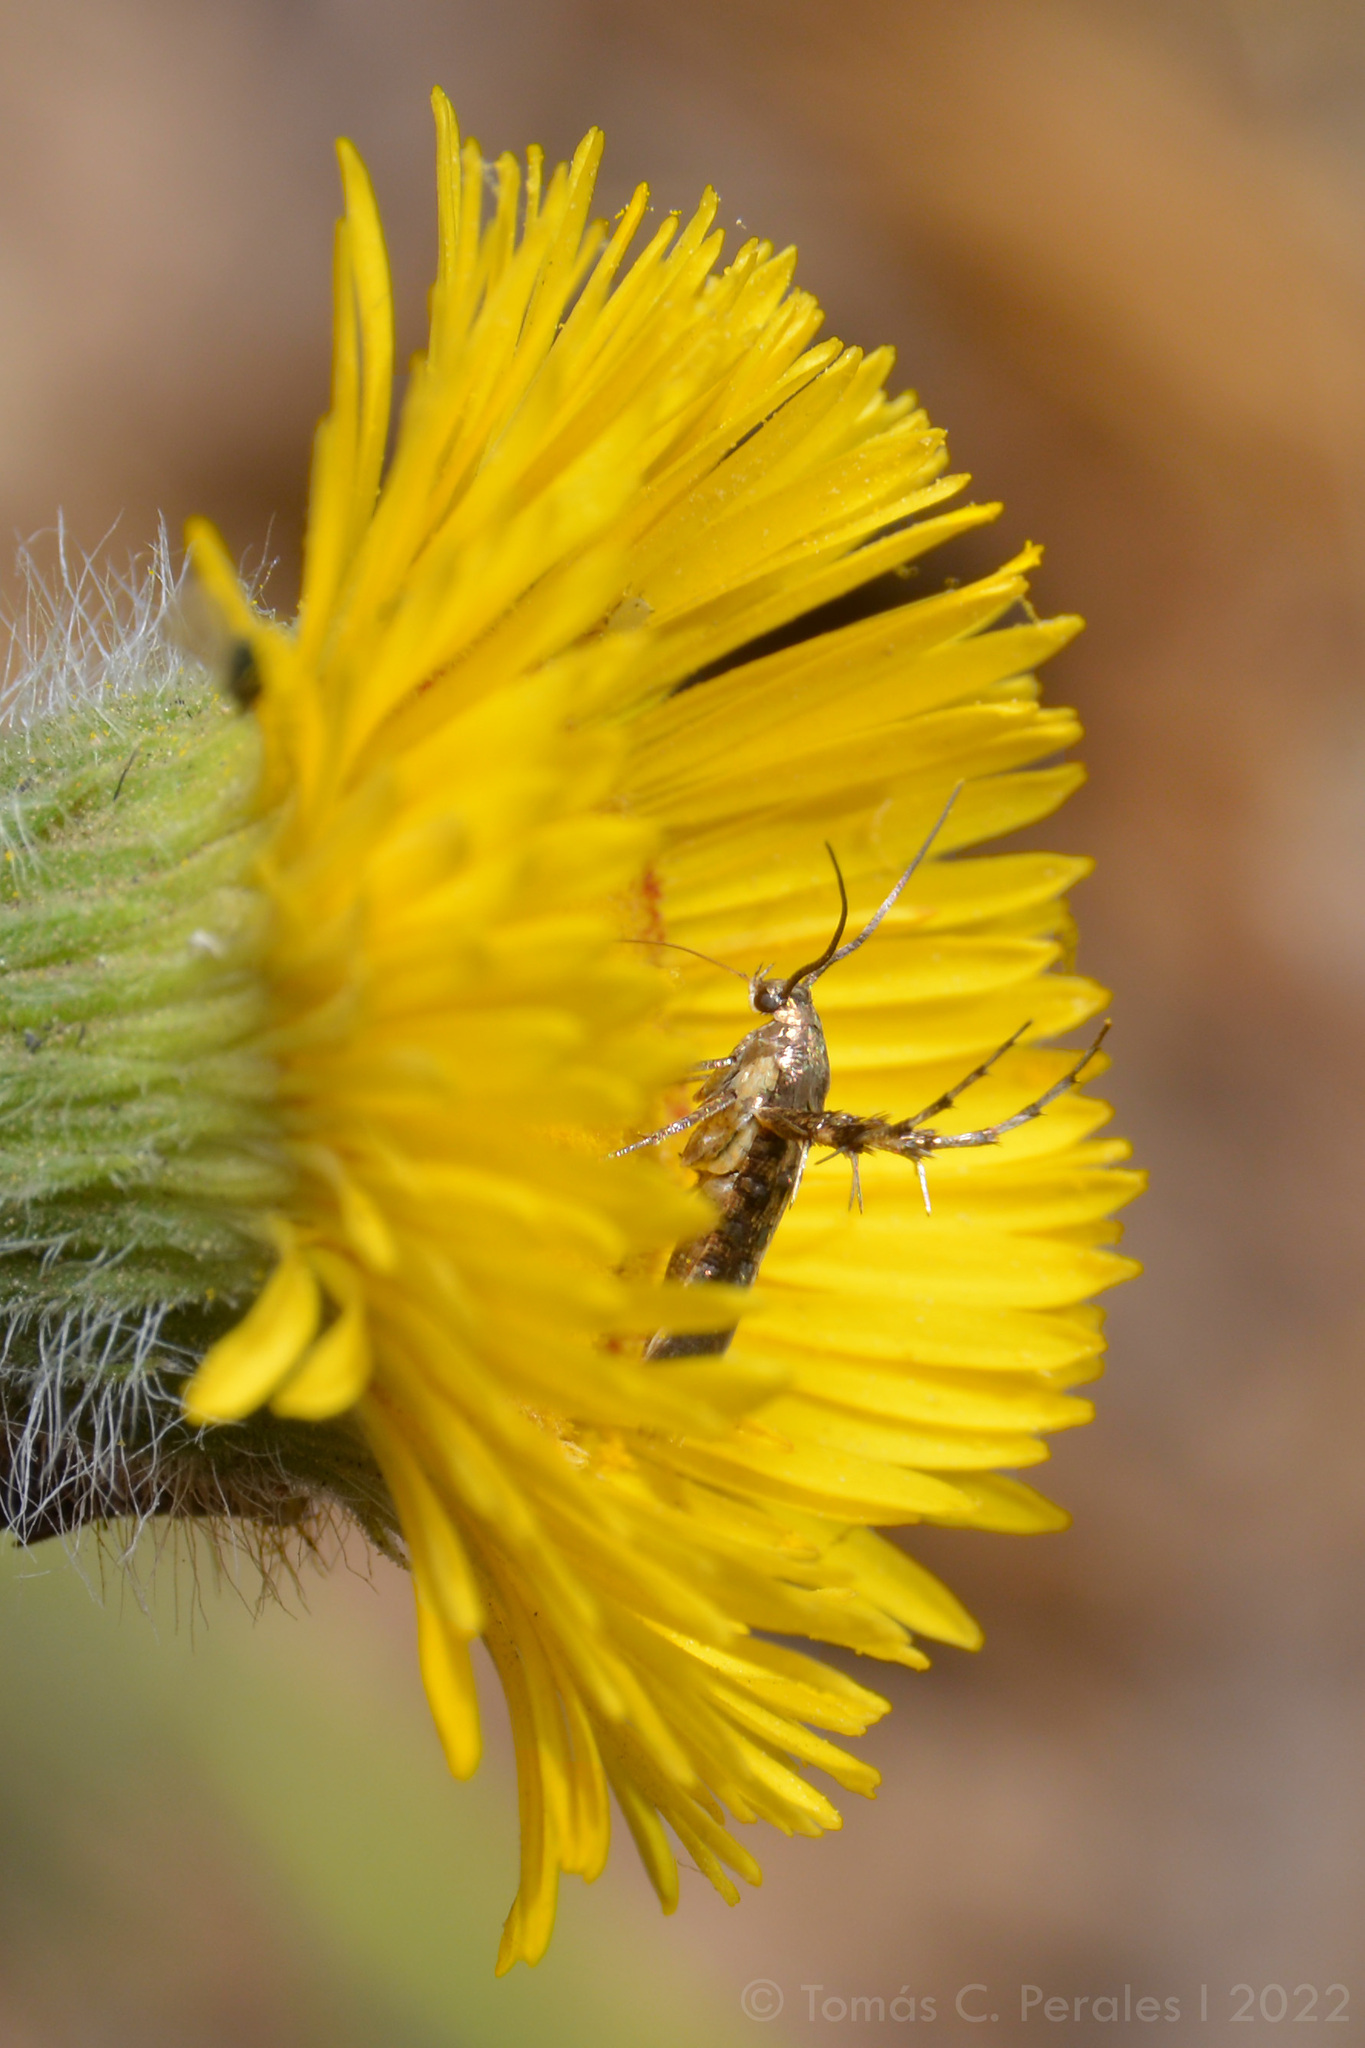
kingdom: Plantae
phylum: Tracheophyta
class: Magnoliopsida
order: Asterales
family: Asteraceae
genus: Hysterionica
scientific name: Hysterionica jasionoides
